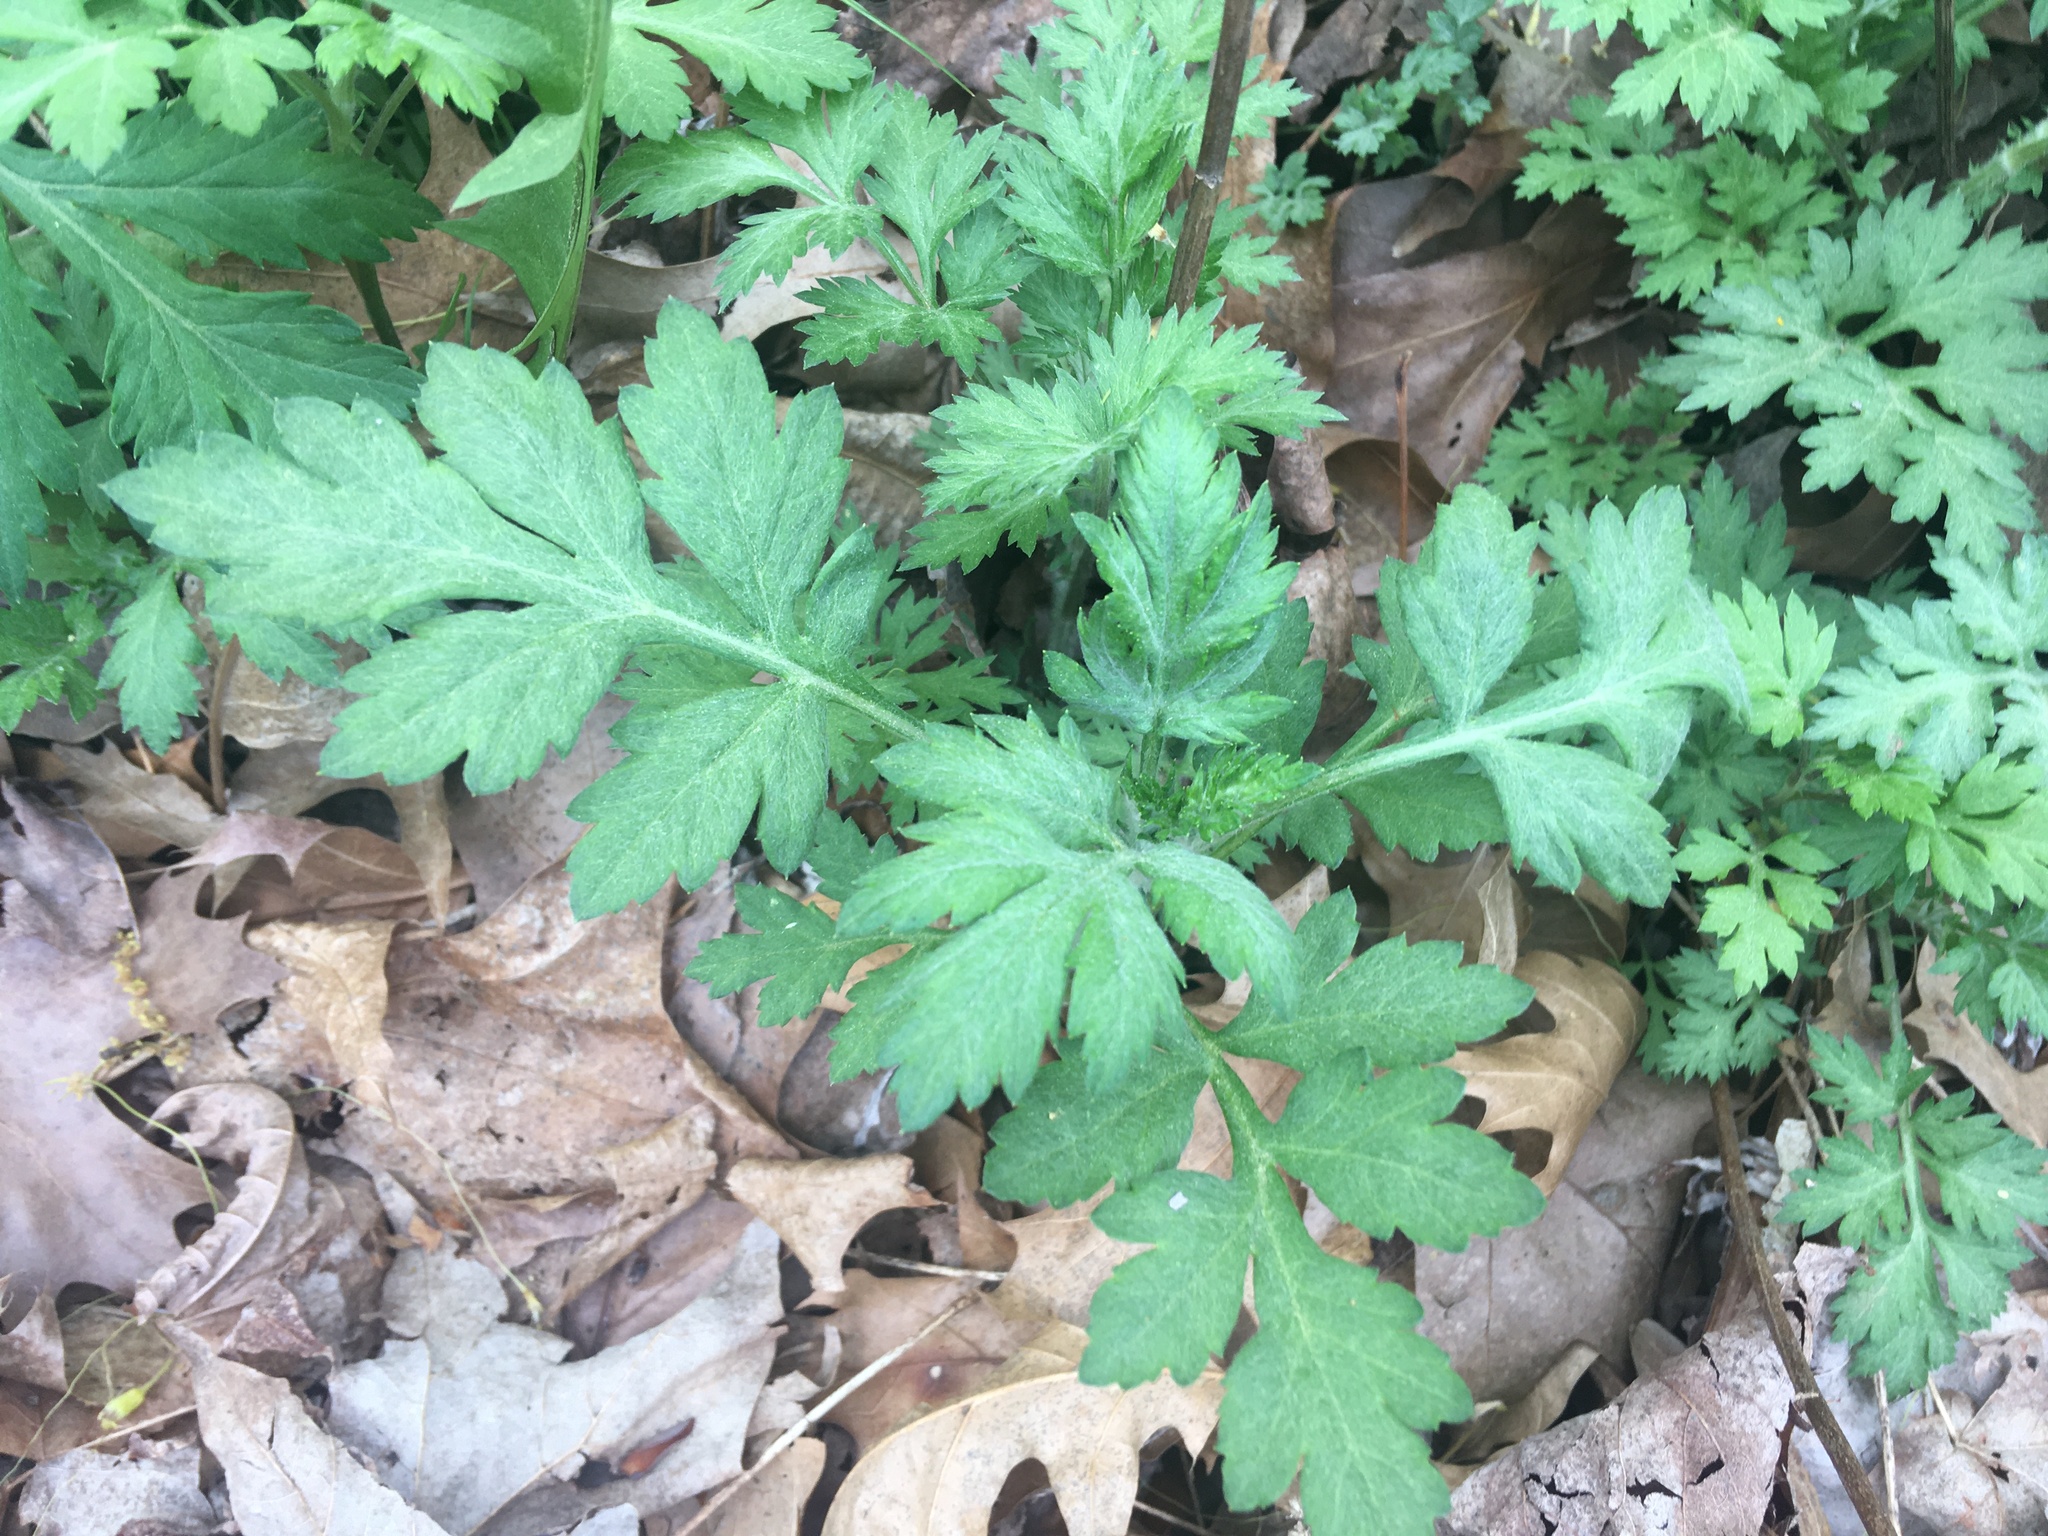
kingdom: Plantae
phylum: Tracheophyta
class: Magnoliopsida
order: Asterales
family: Asteraceae
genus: Artemisia
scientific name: Artemisia vulgaris
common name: Mugwort
